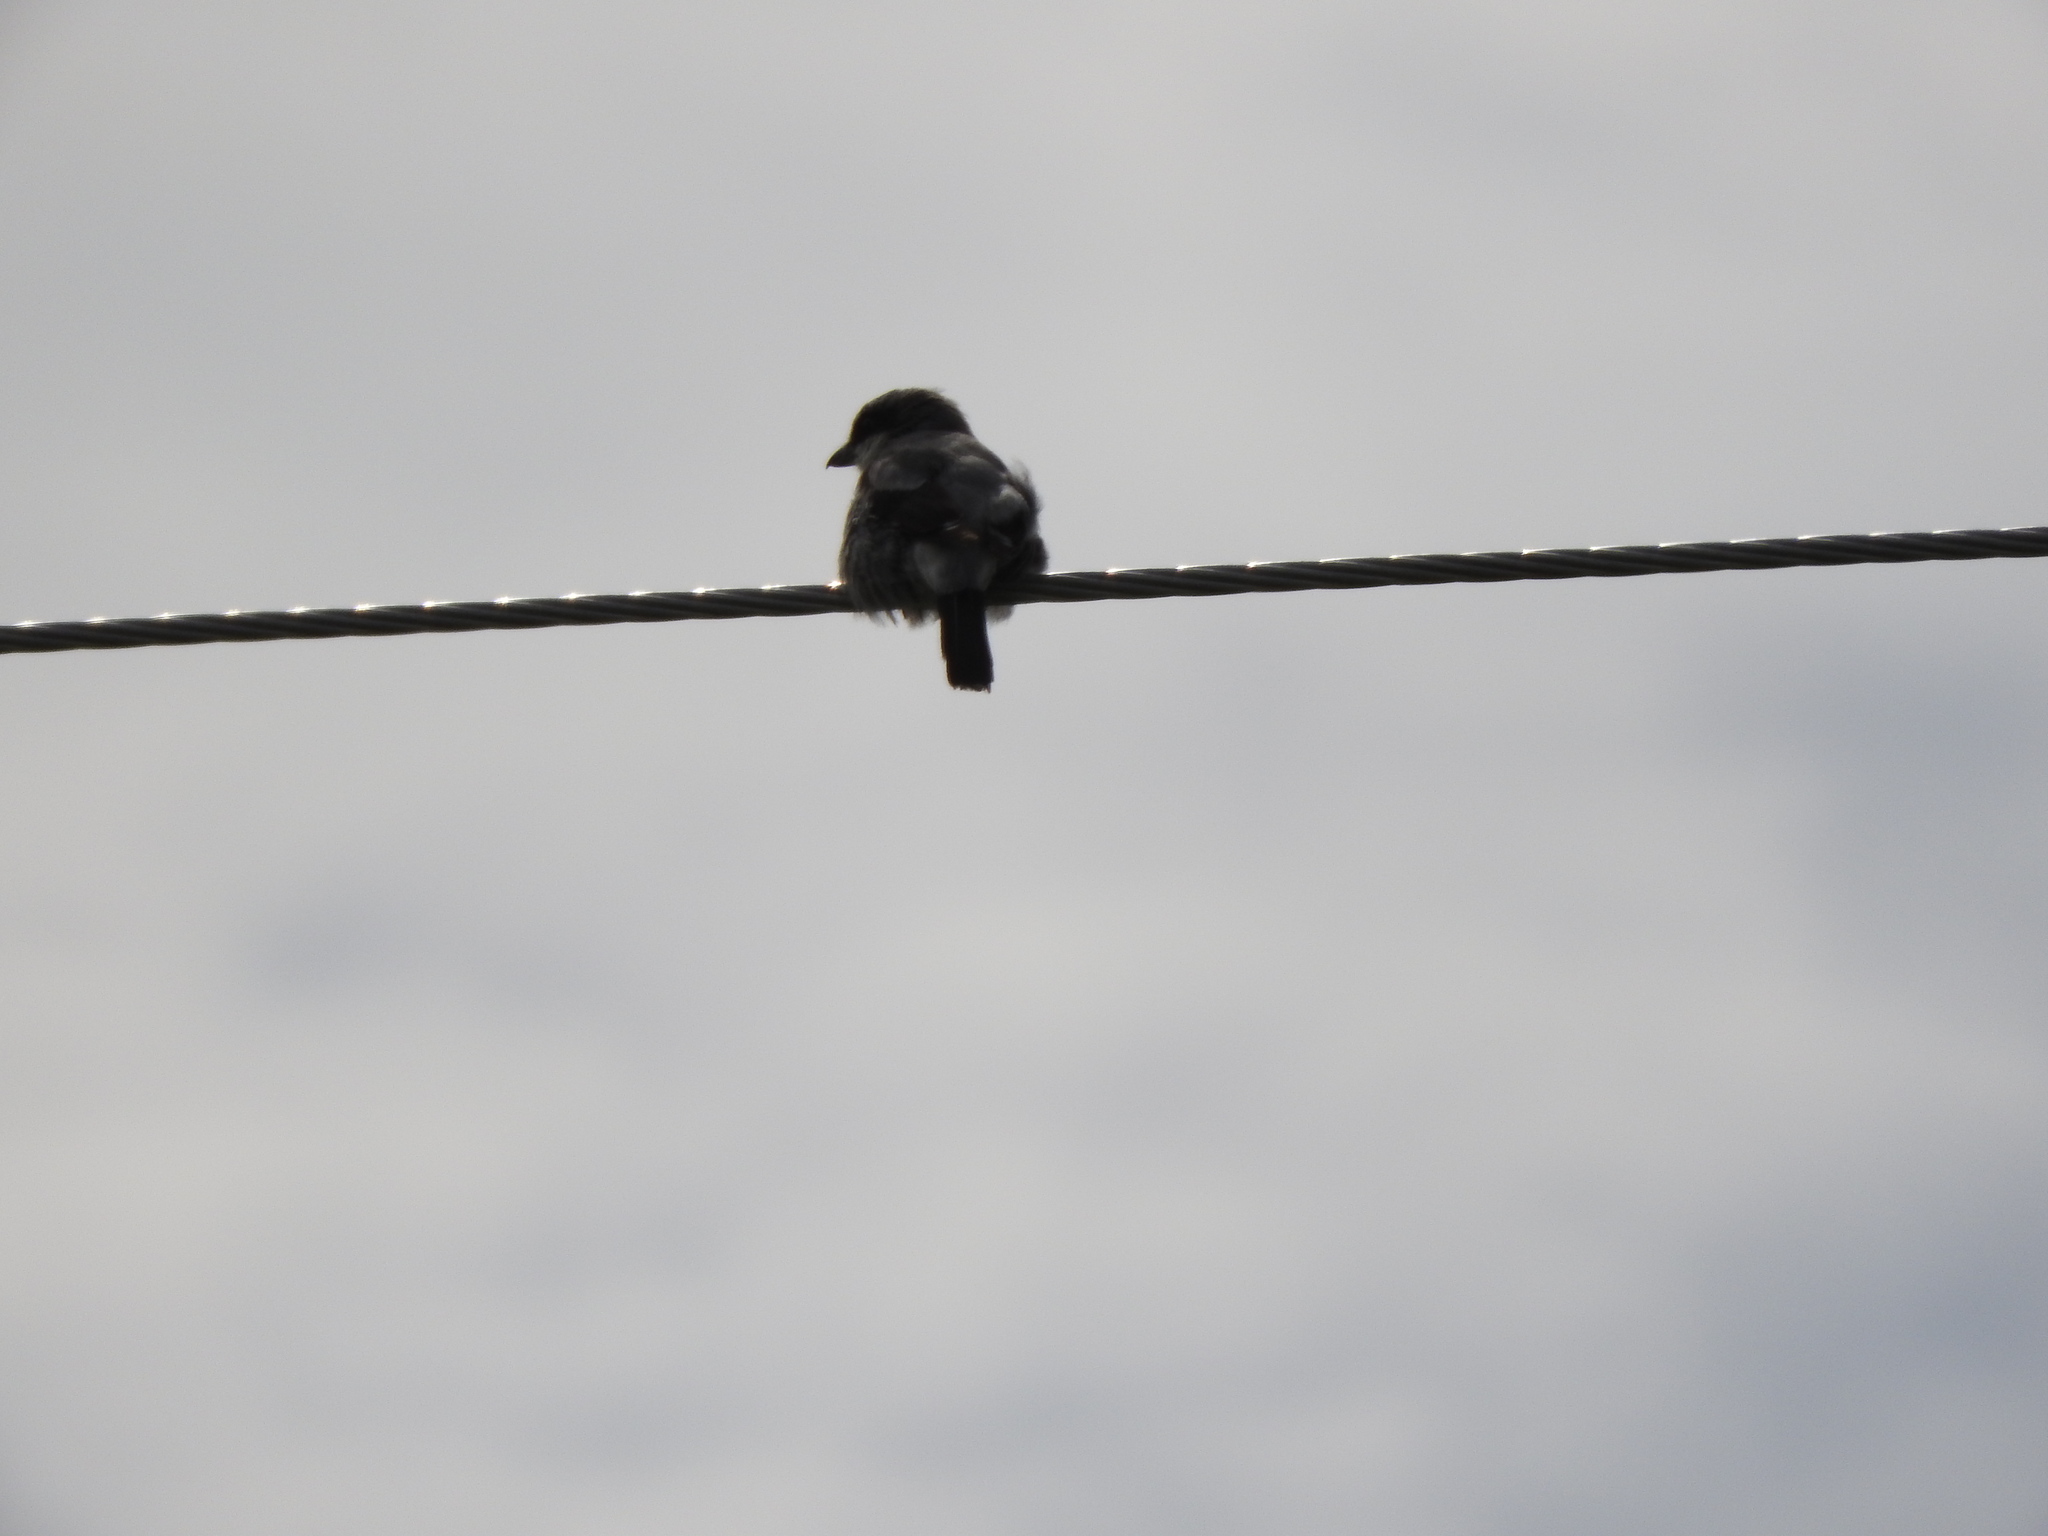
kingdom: Animalia
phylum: Chordata
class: Aves
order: Passeriformes
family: Laniidae
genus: Lanius
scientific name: Lanius ludovicianus
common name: Loggerhead shrike
